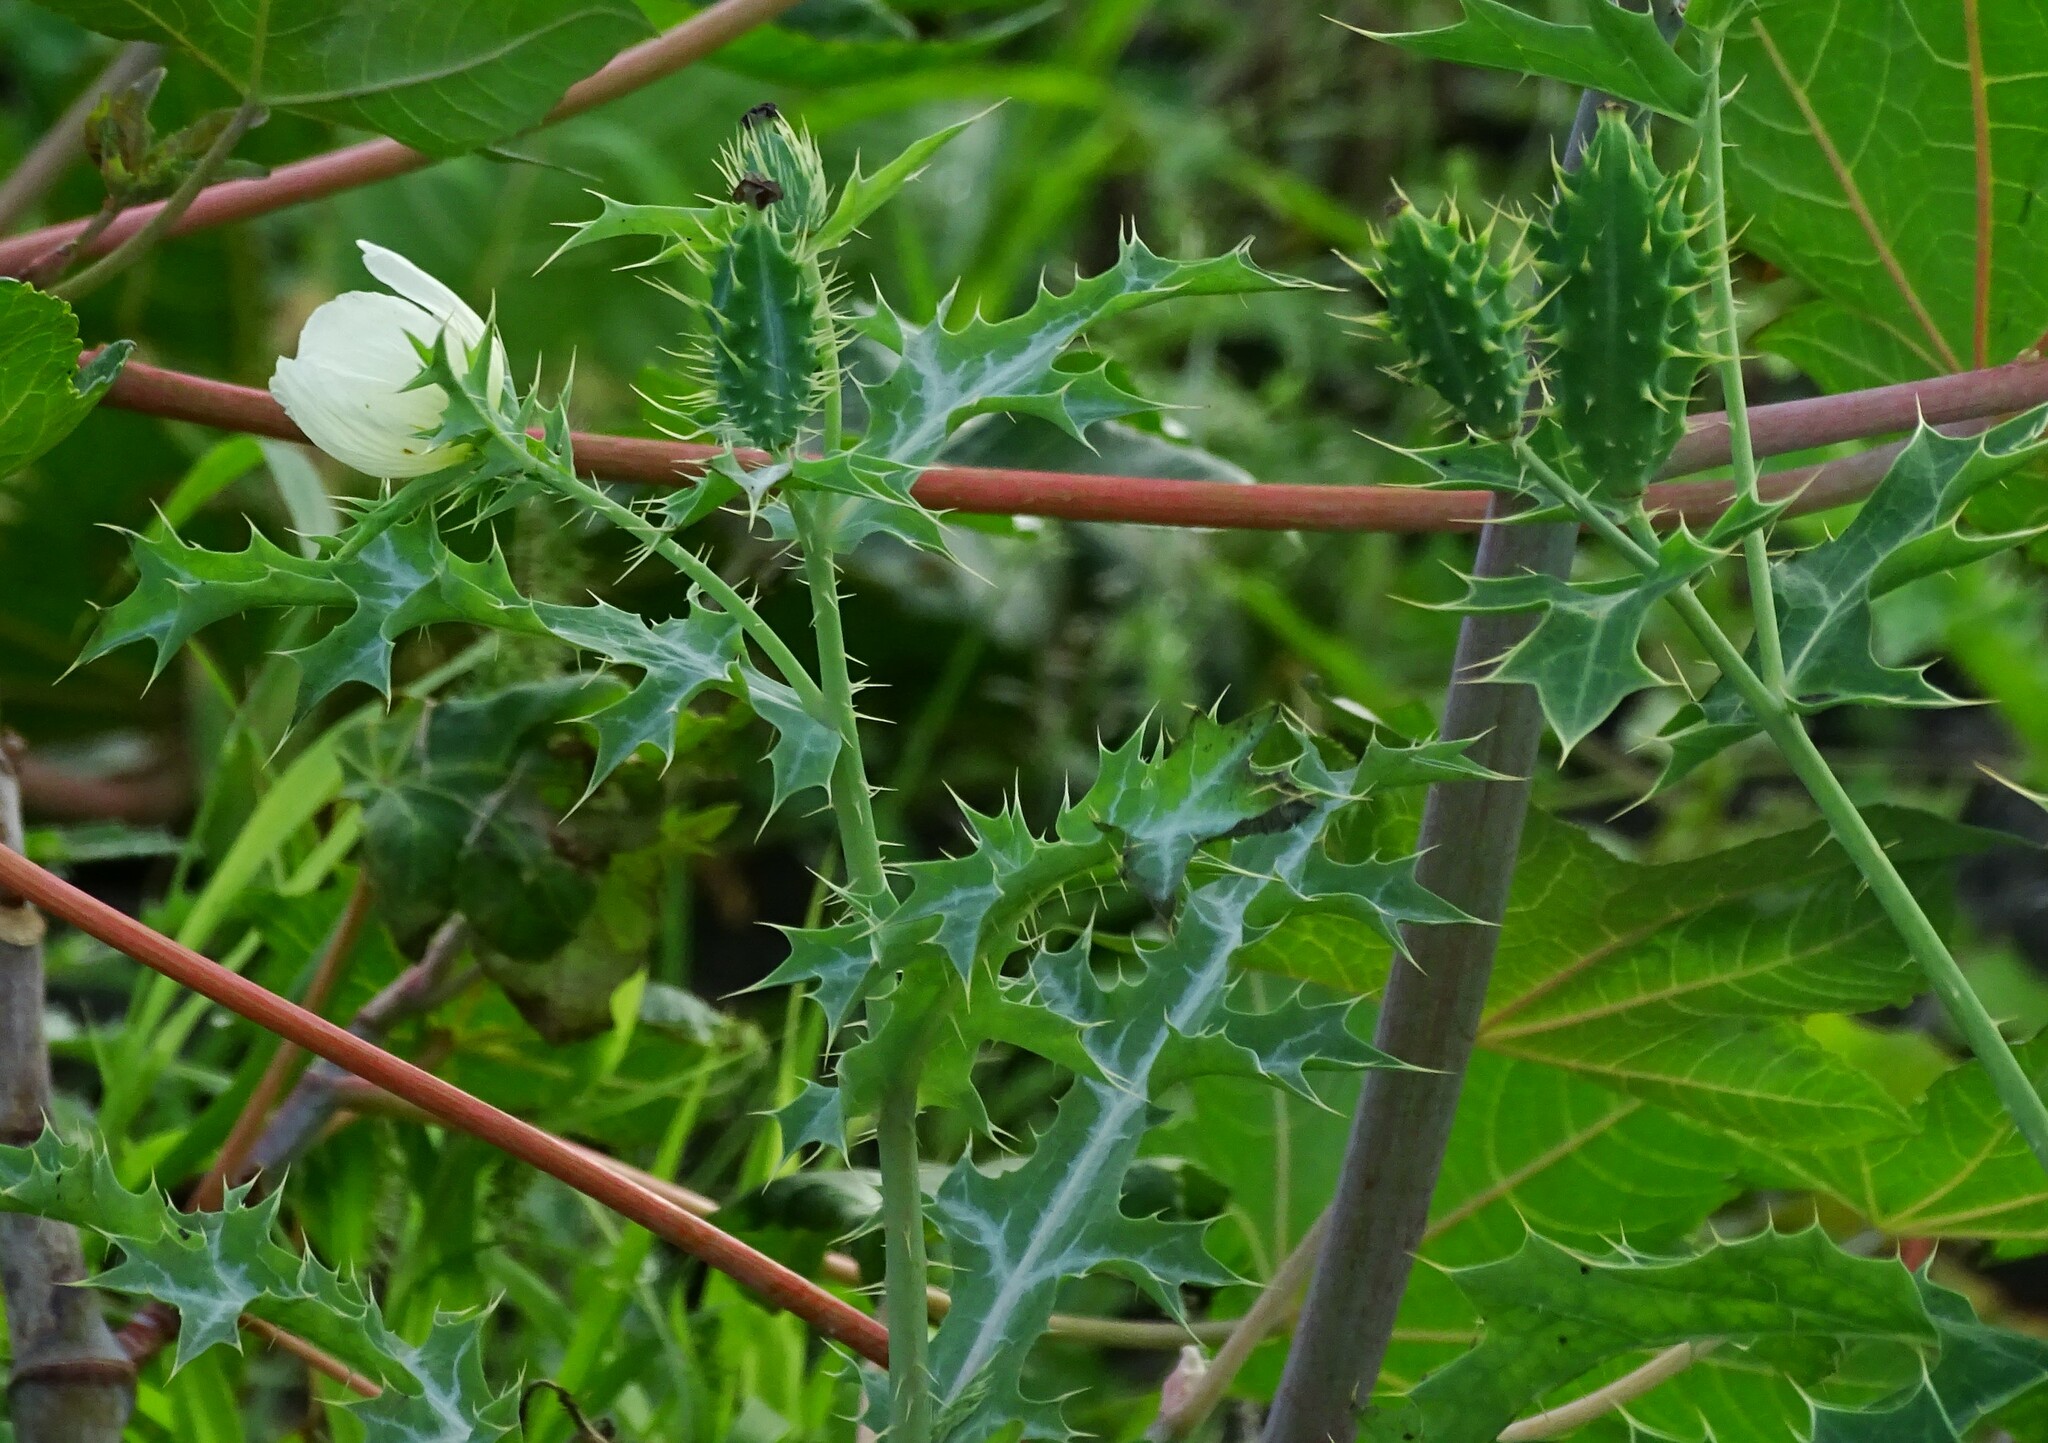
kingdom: Plantae
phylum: Tracheophyta
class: Magnoliopsida
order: Ranunculales
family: Papaveraceae
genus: Argemone
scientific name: Argemone ochroleuca
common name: White-flower mexican-poppy
